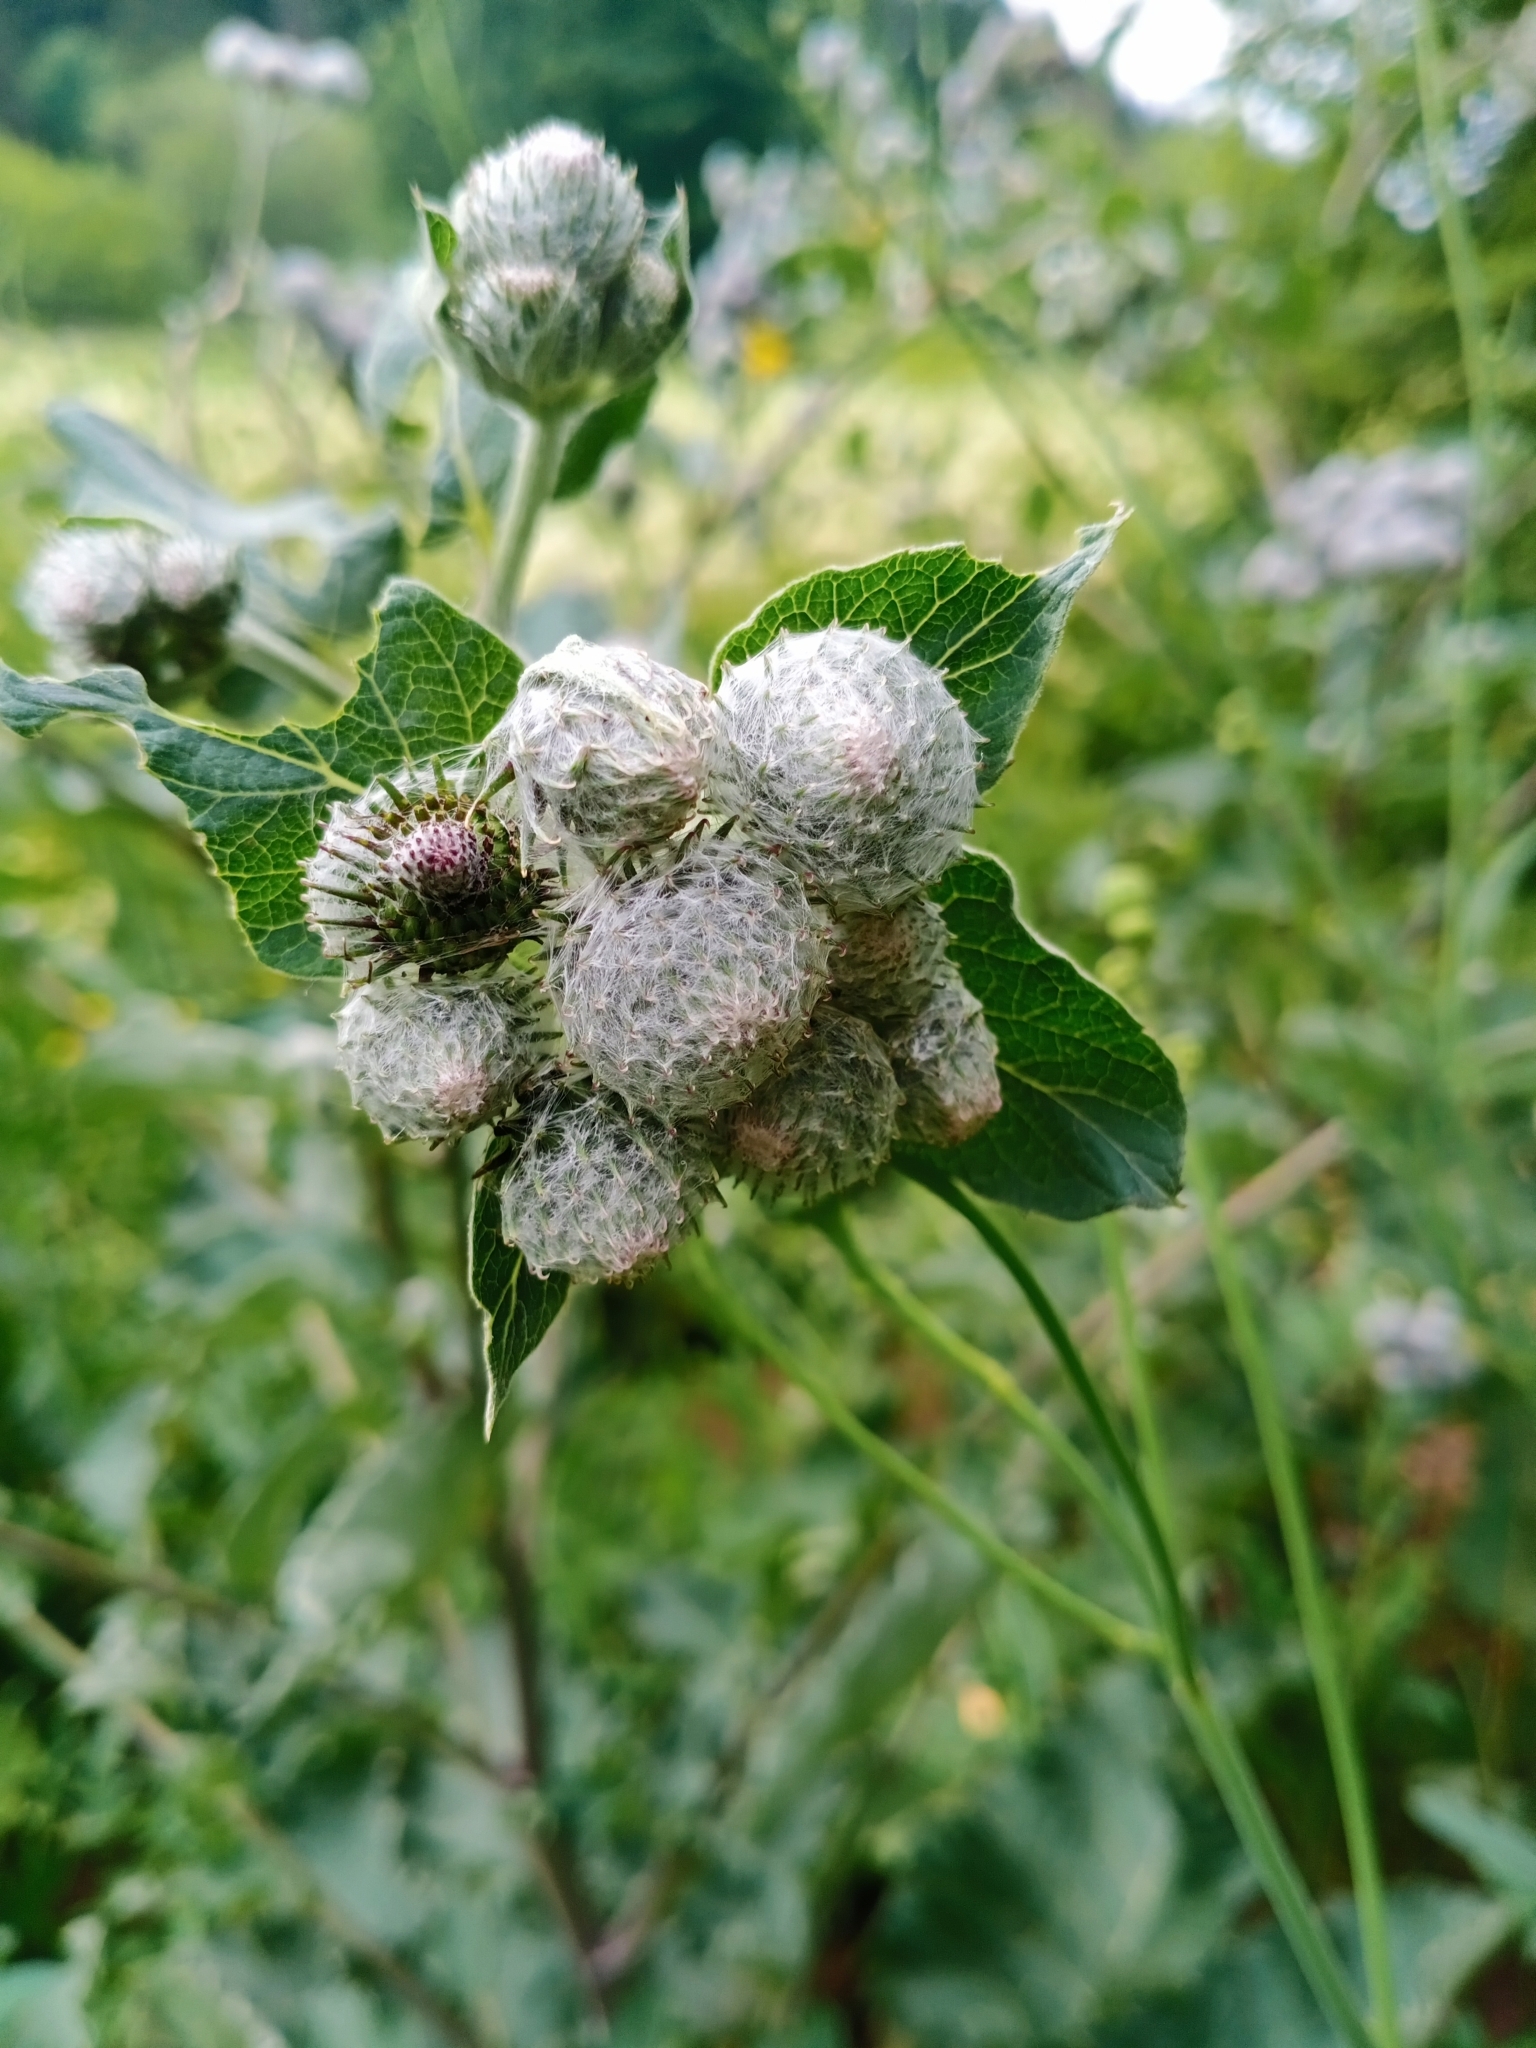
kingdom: Plantae
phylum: Tracheophyta
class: Magnoliopsida
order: Asterales
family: Asteraceae
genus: Arctium
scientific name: Arctium tomentosum
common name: Woolly burdock
